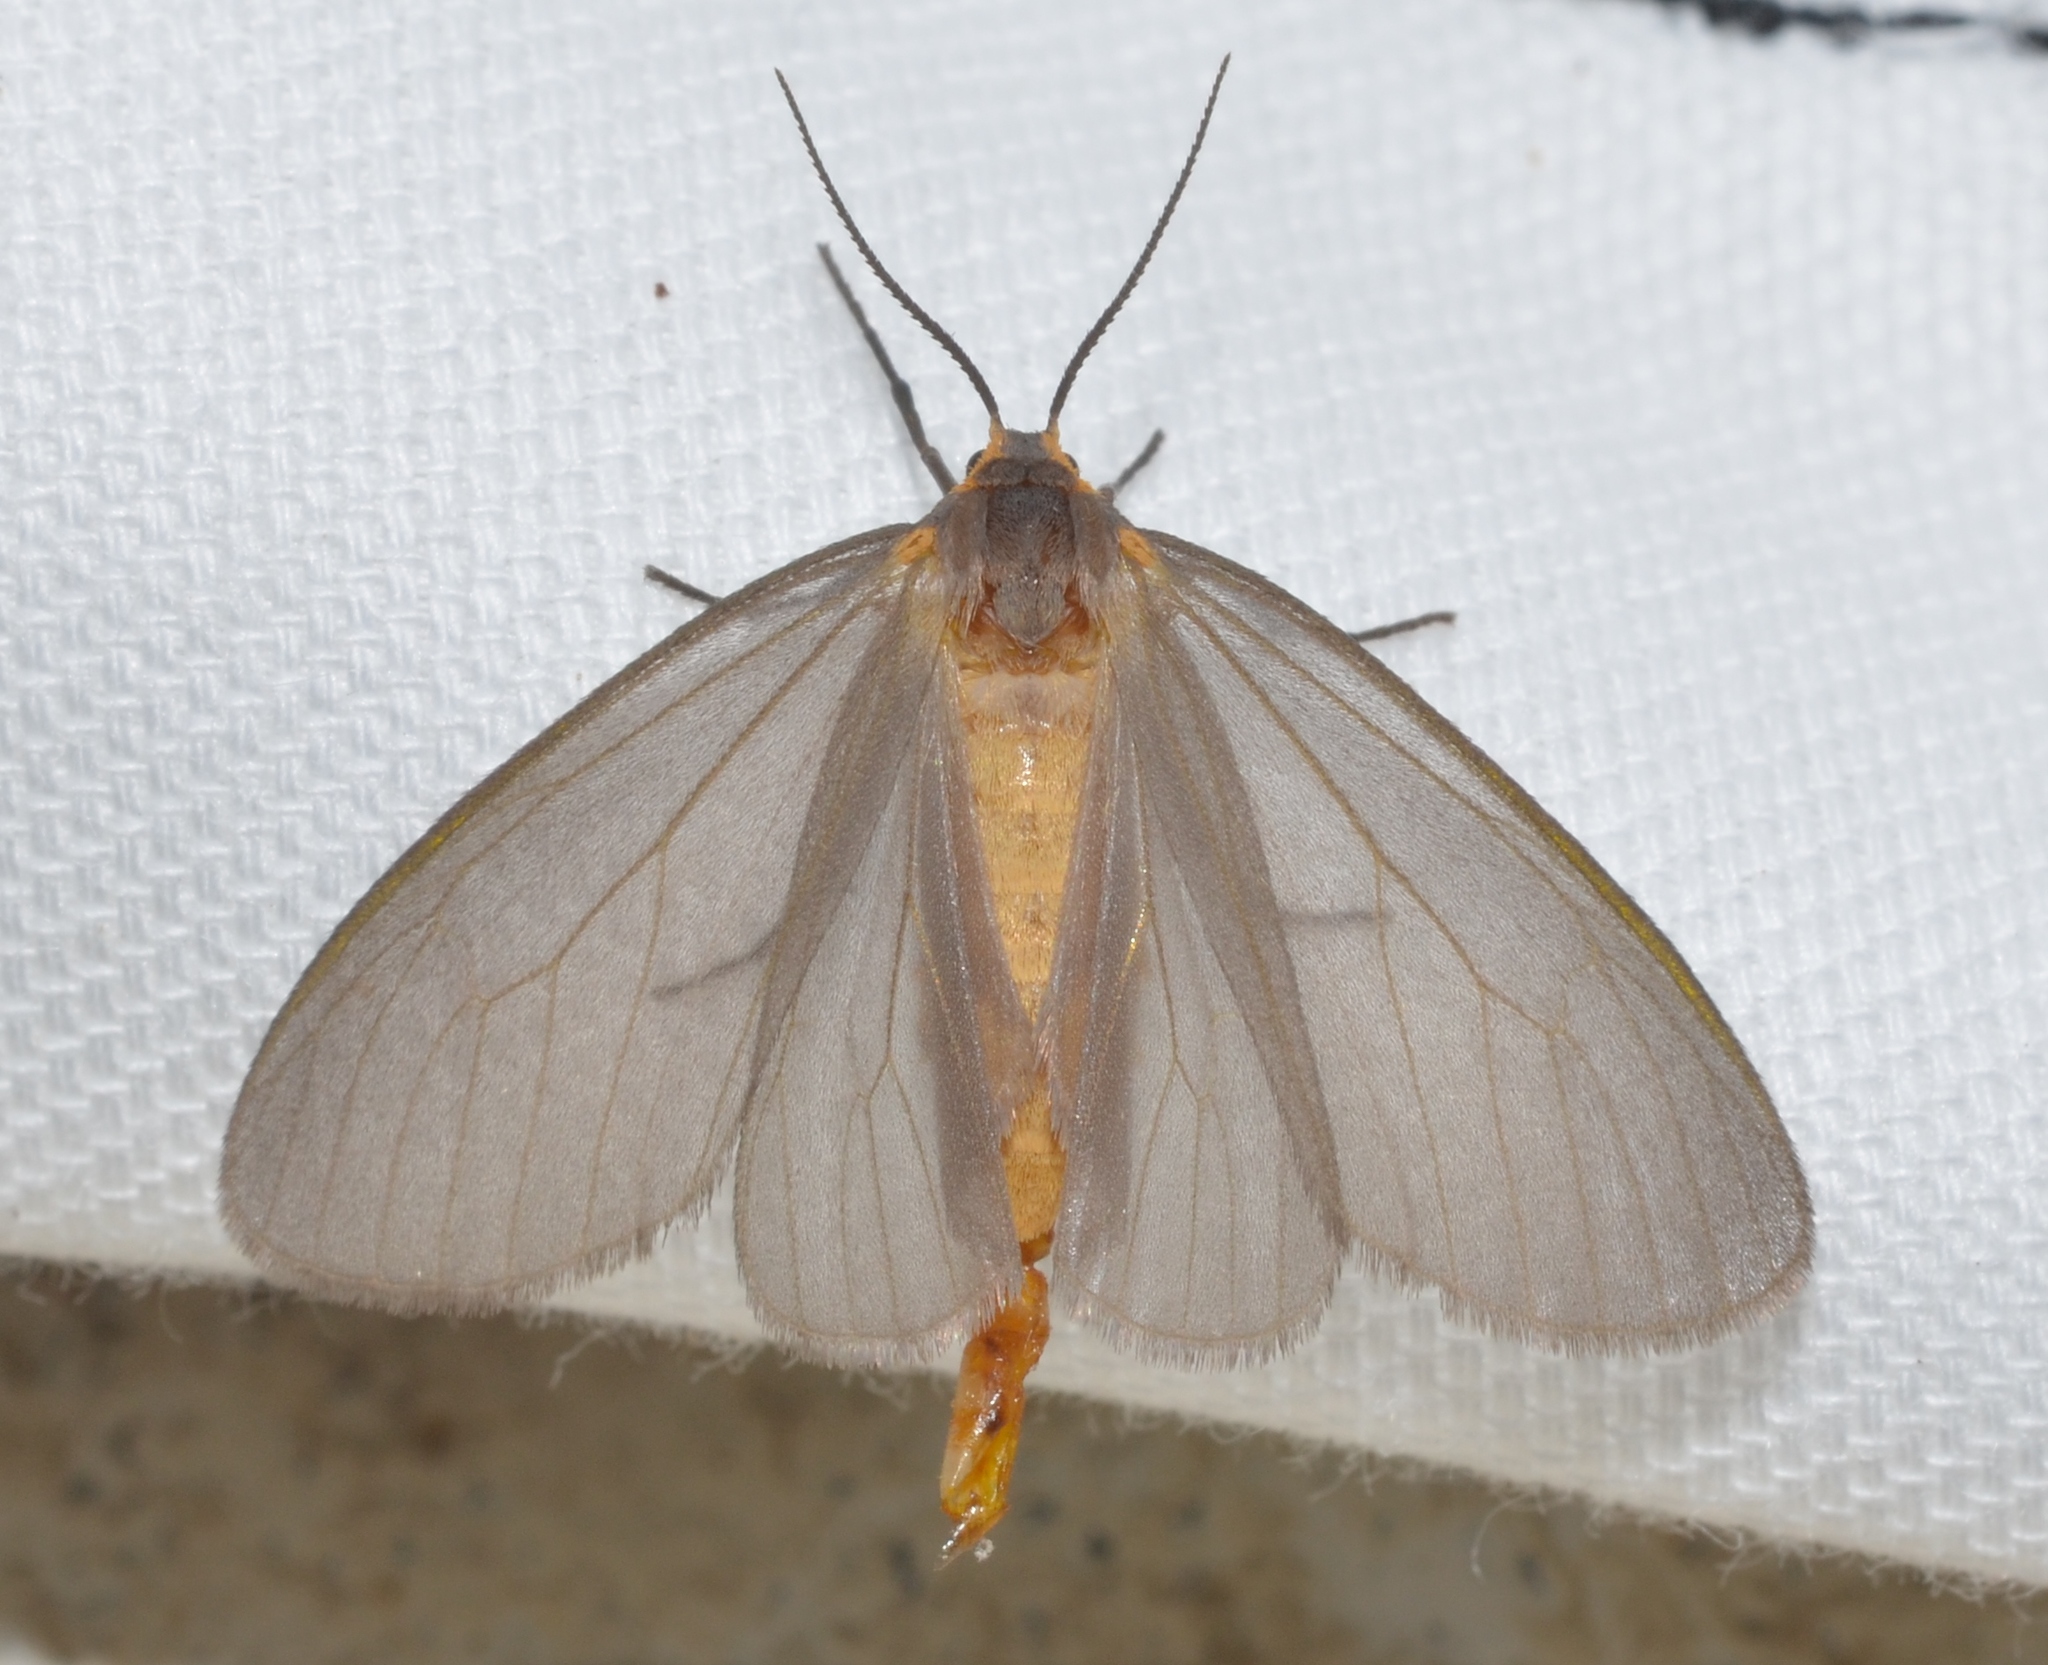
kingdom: Animalia
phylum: Arthropoda
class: Insecta
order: Lepidoptera
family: Erebidae
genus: Pagara
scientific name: Pagara simplex
